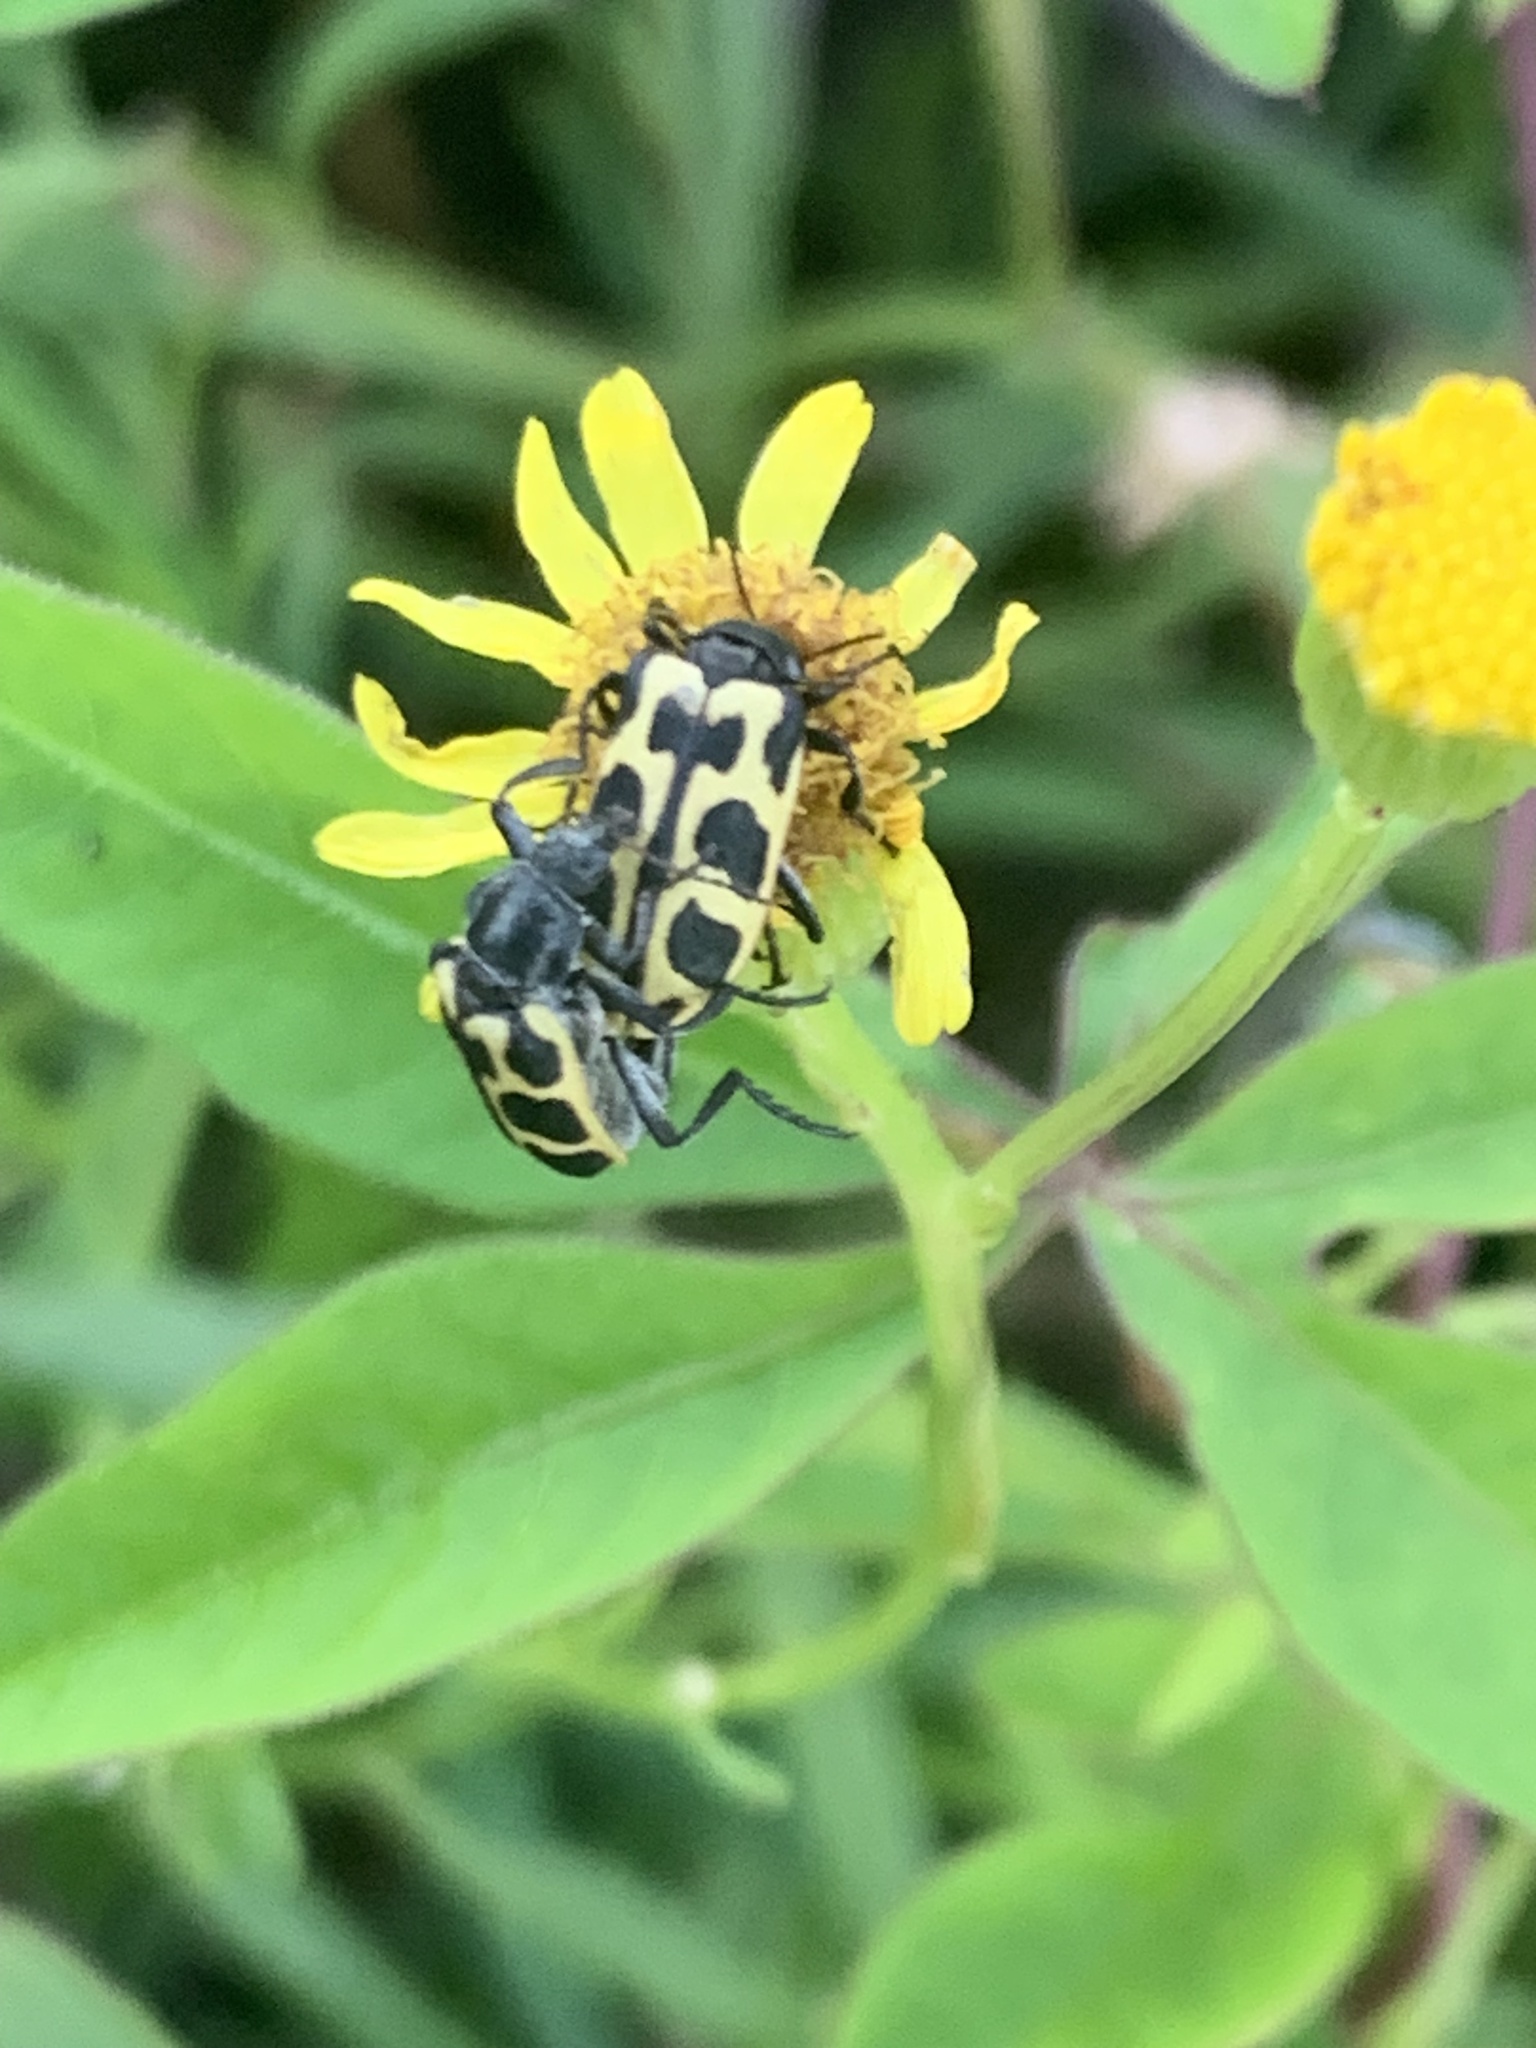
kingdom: Animalia
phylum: Arthropoda
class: Insecta
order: Coleoptera
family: Melyridae
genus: Astylus
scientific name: Astylus atromaculatus
